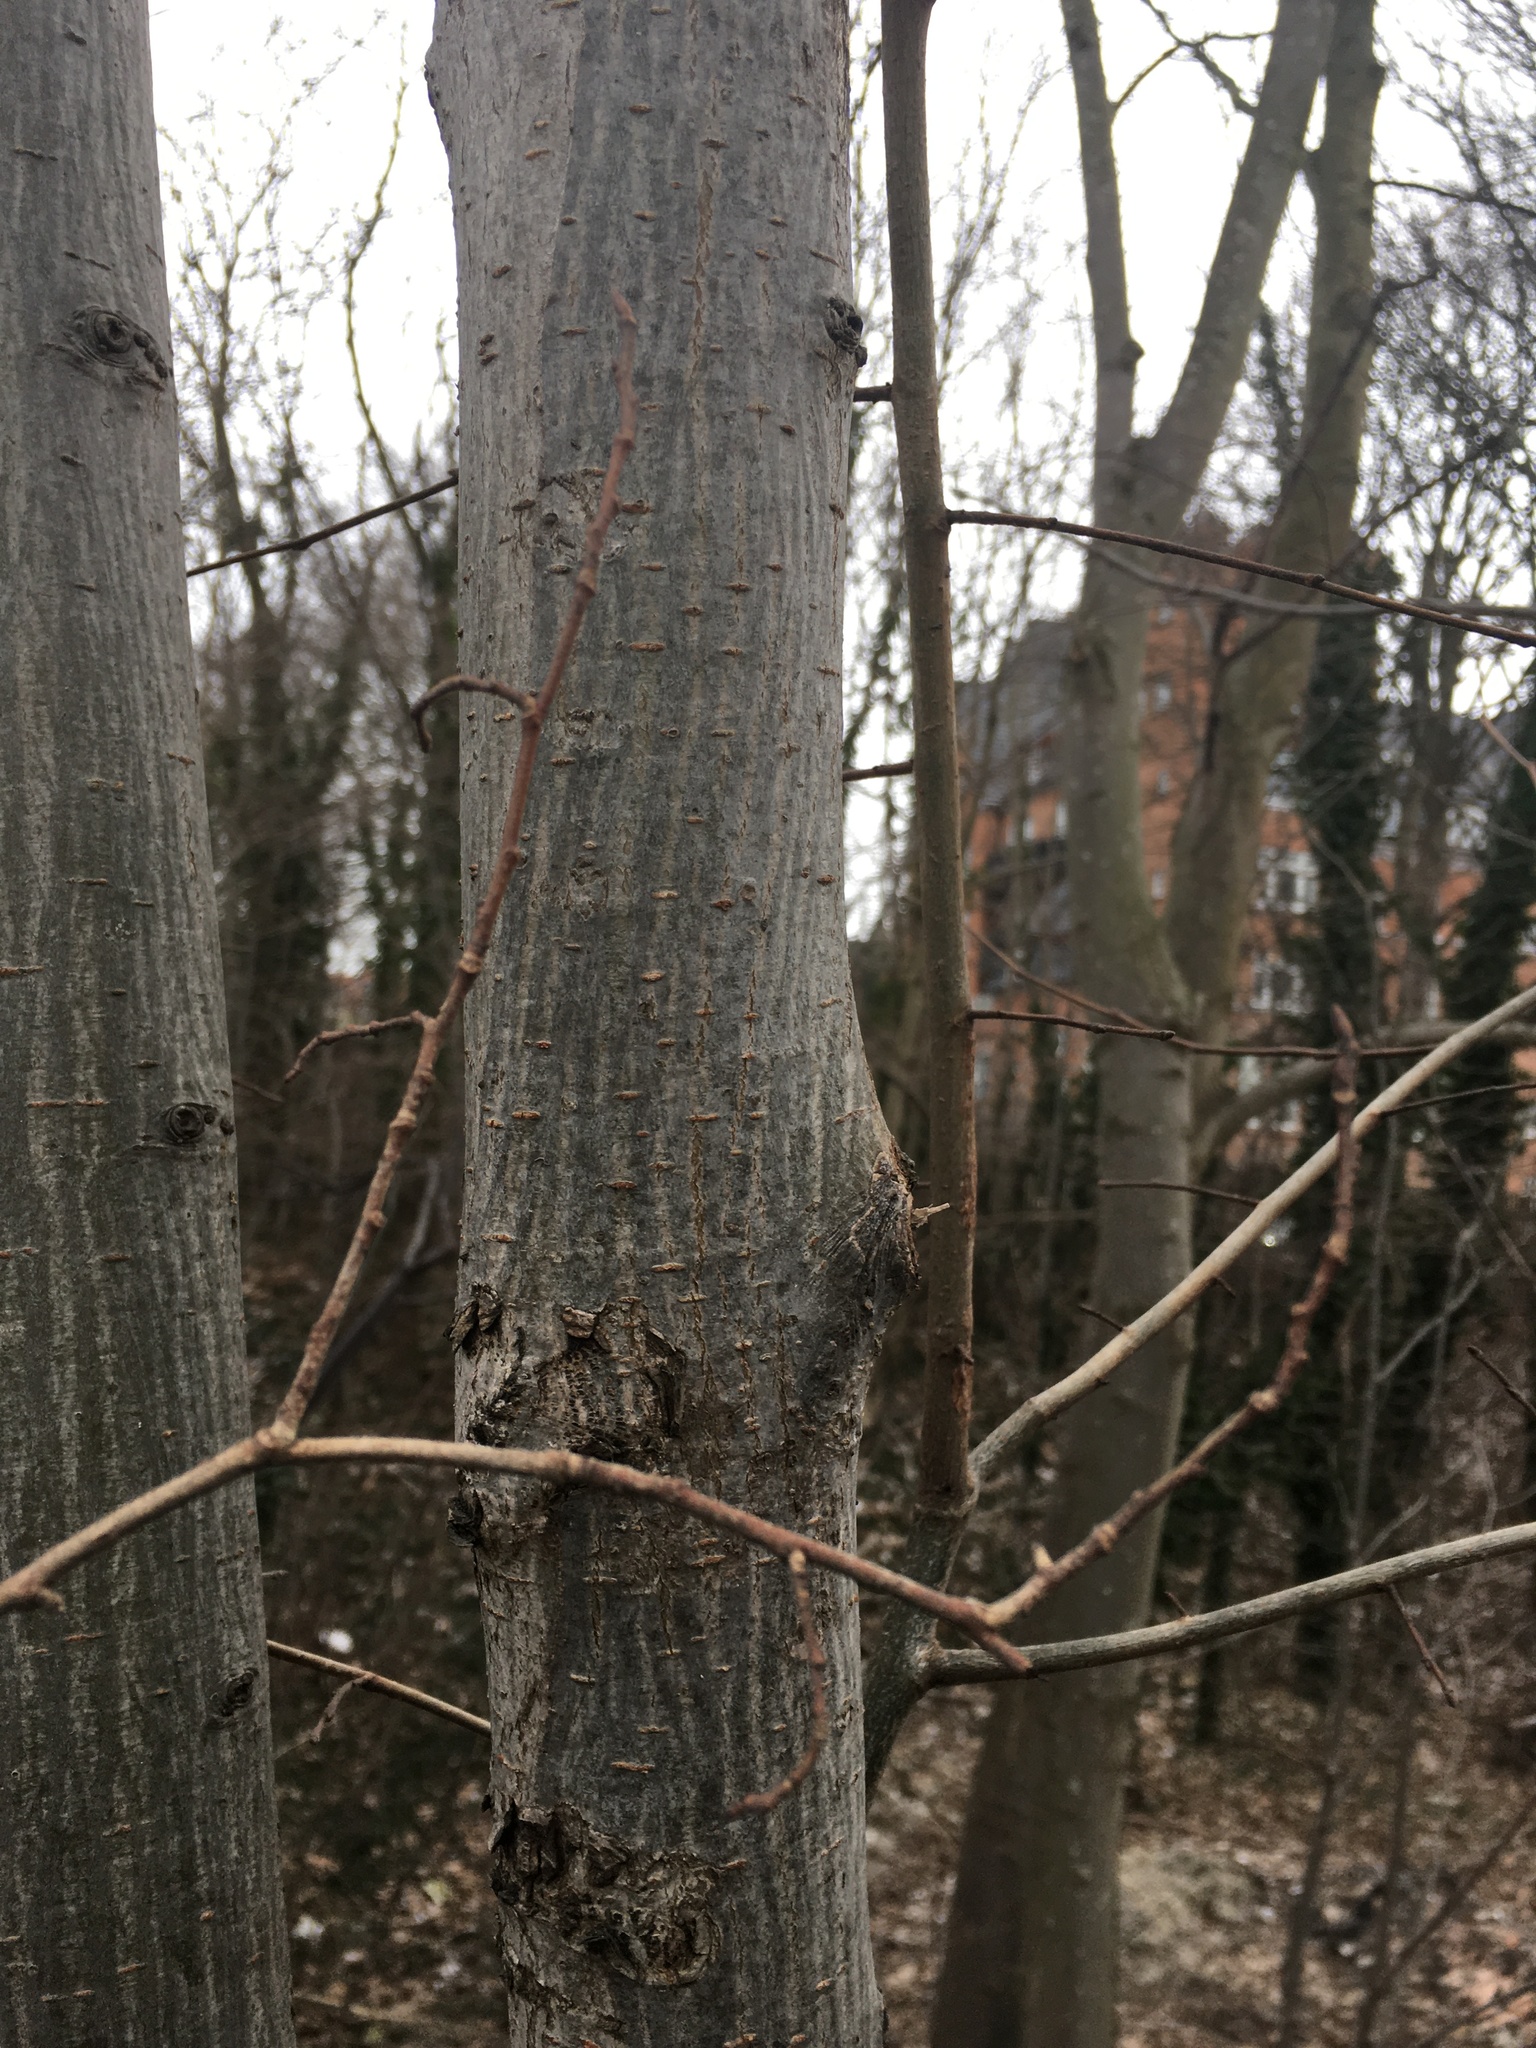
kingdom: Plantae
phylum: Tracheophyta
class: Magnoliopsida
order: Rosales
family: Ulmaceae
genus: Ulmus
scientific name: Ulmus glabra
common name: Wych elm
